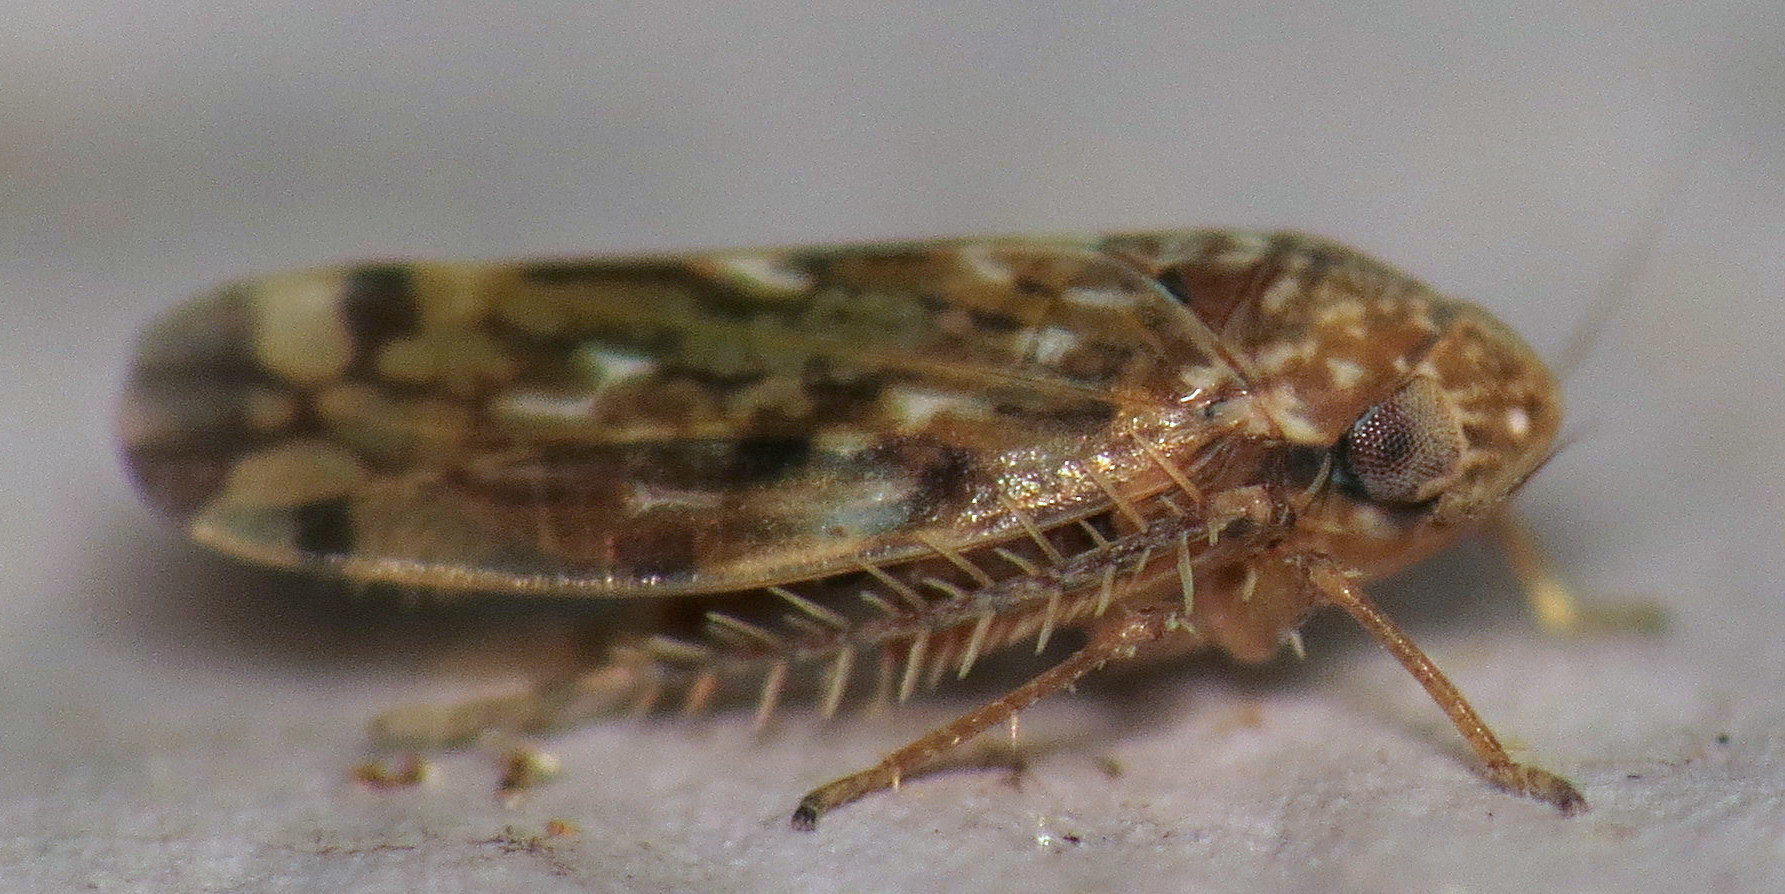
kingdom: Animalia
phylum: Arthropoda
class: Insecta
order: Hemiptera
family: Cicadellidae
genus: Xestocephalus
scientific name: Xestocephalus
